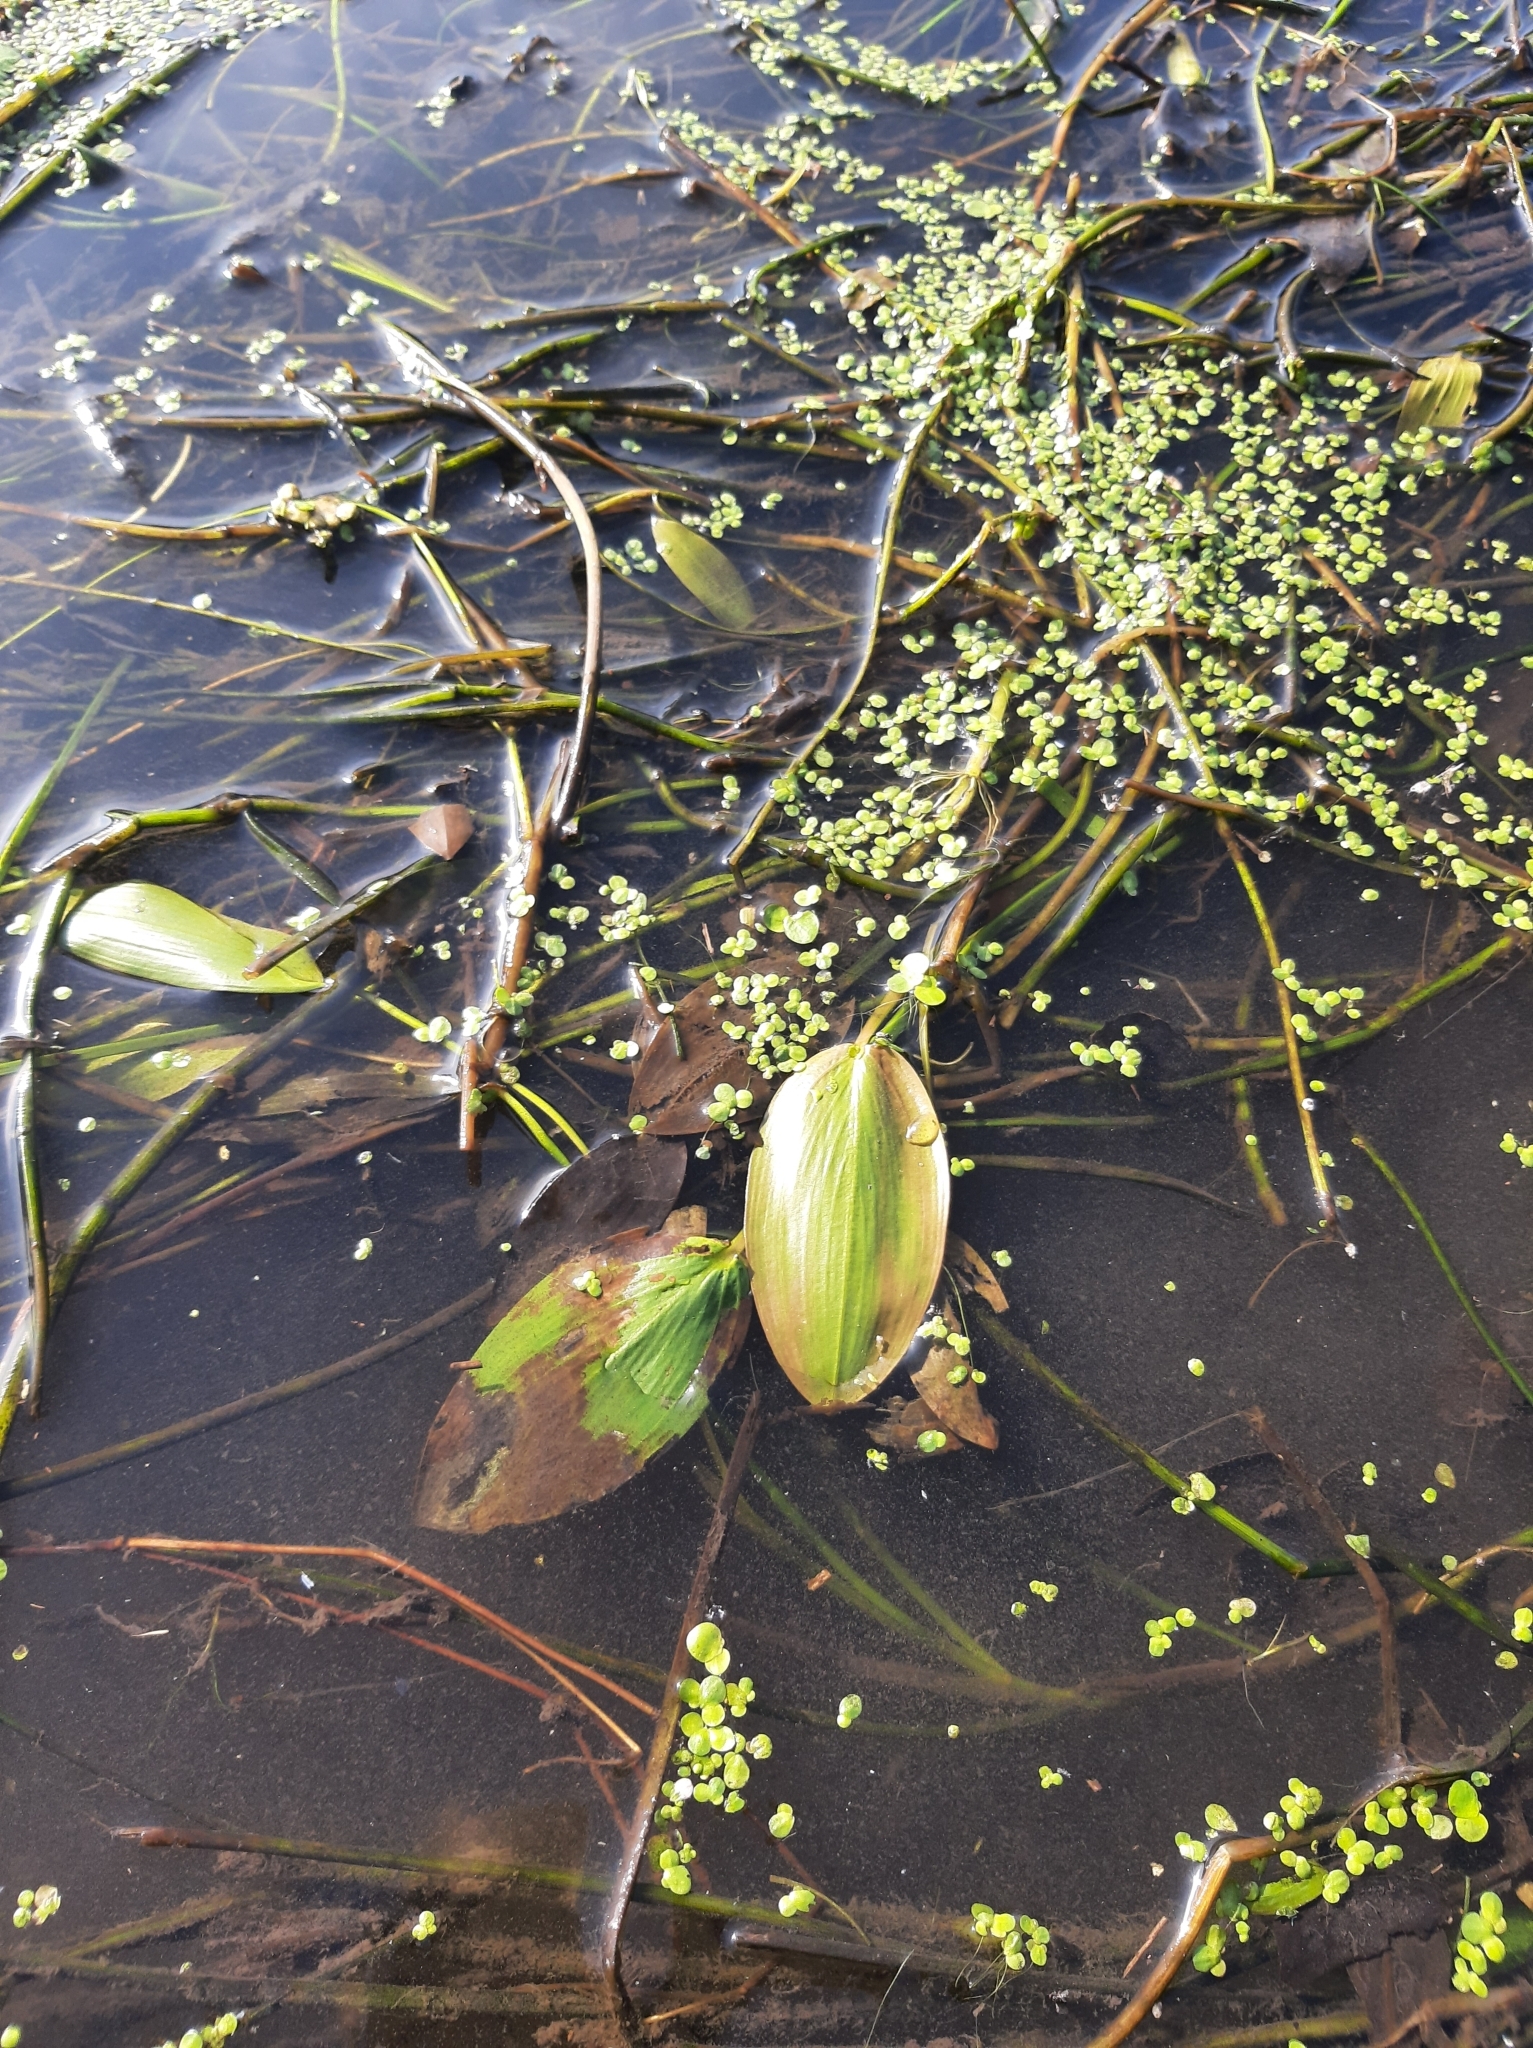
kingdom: Plantae
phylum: Tracheophyta
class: Liliopsida
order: Alismatales
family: Potamogetonaceae
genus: Potamogeton
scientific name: Potamogeton natans
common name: Broad-leaved pondweed
